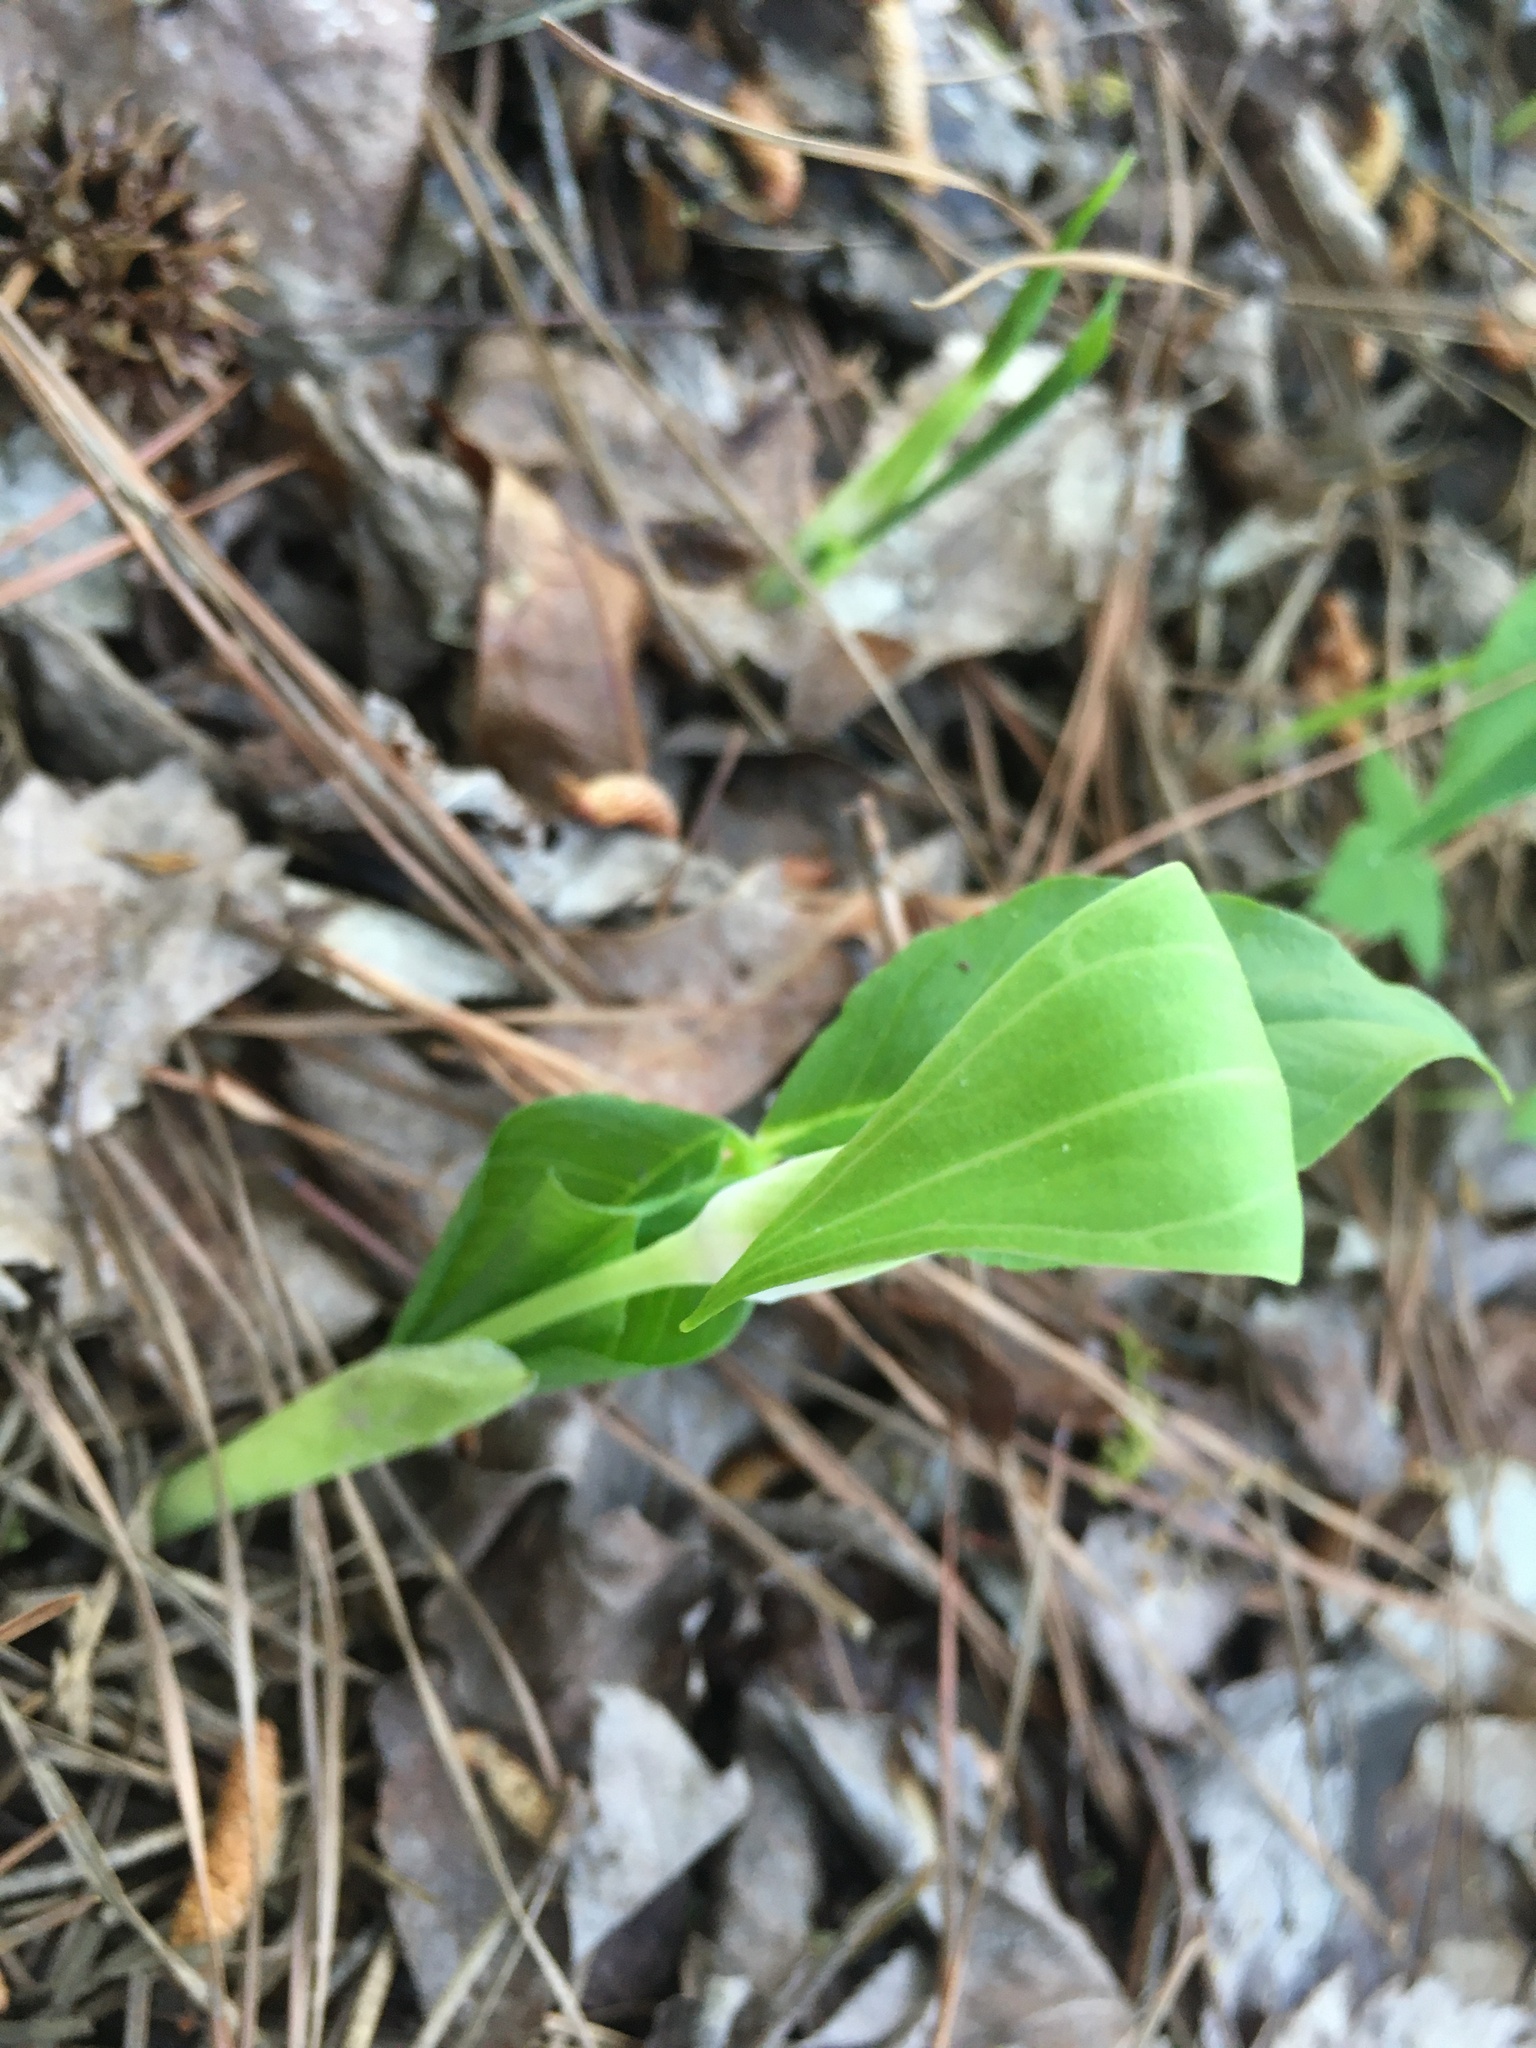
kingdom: Plantae
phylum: Tracheophyta
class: Liliopsida
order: Alismatales
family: Araceae
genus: Arisaema
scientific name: Arisaema pusillum
